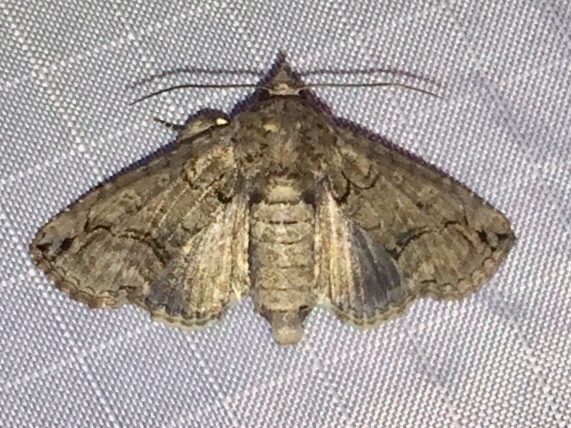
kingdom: Animalia
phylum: Arthropoda
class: Insecta
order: Lepidoptera
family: Euteliidae
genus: Paectes
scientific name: Paectes abrostoloides
